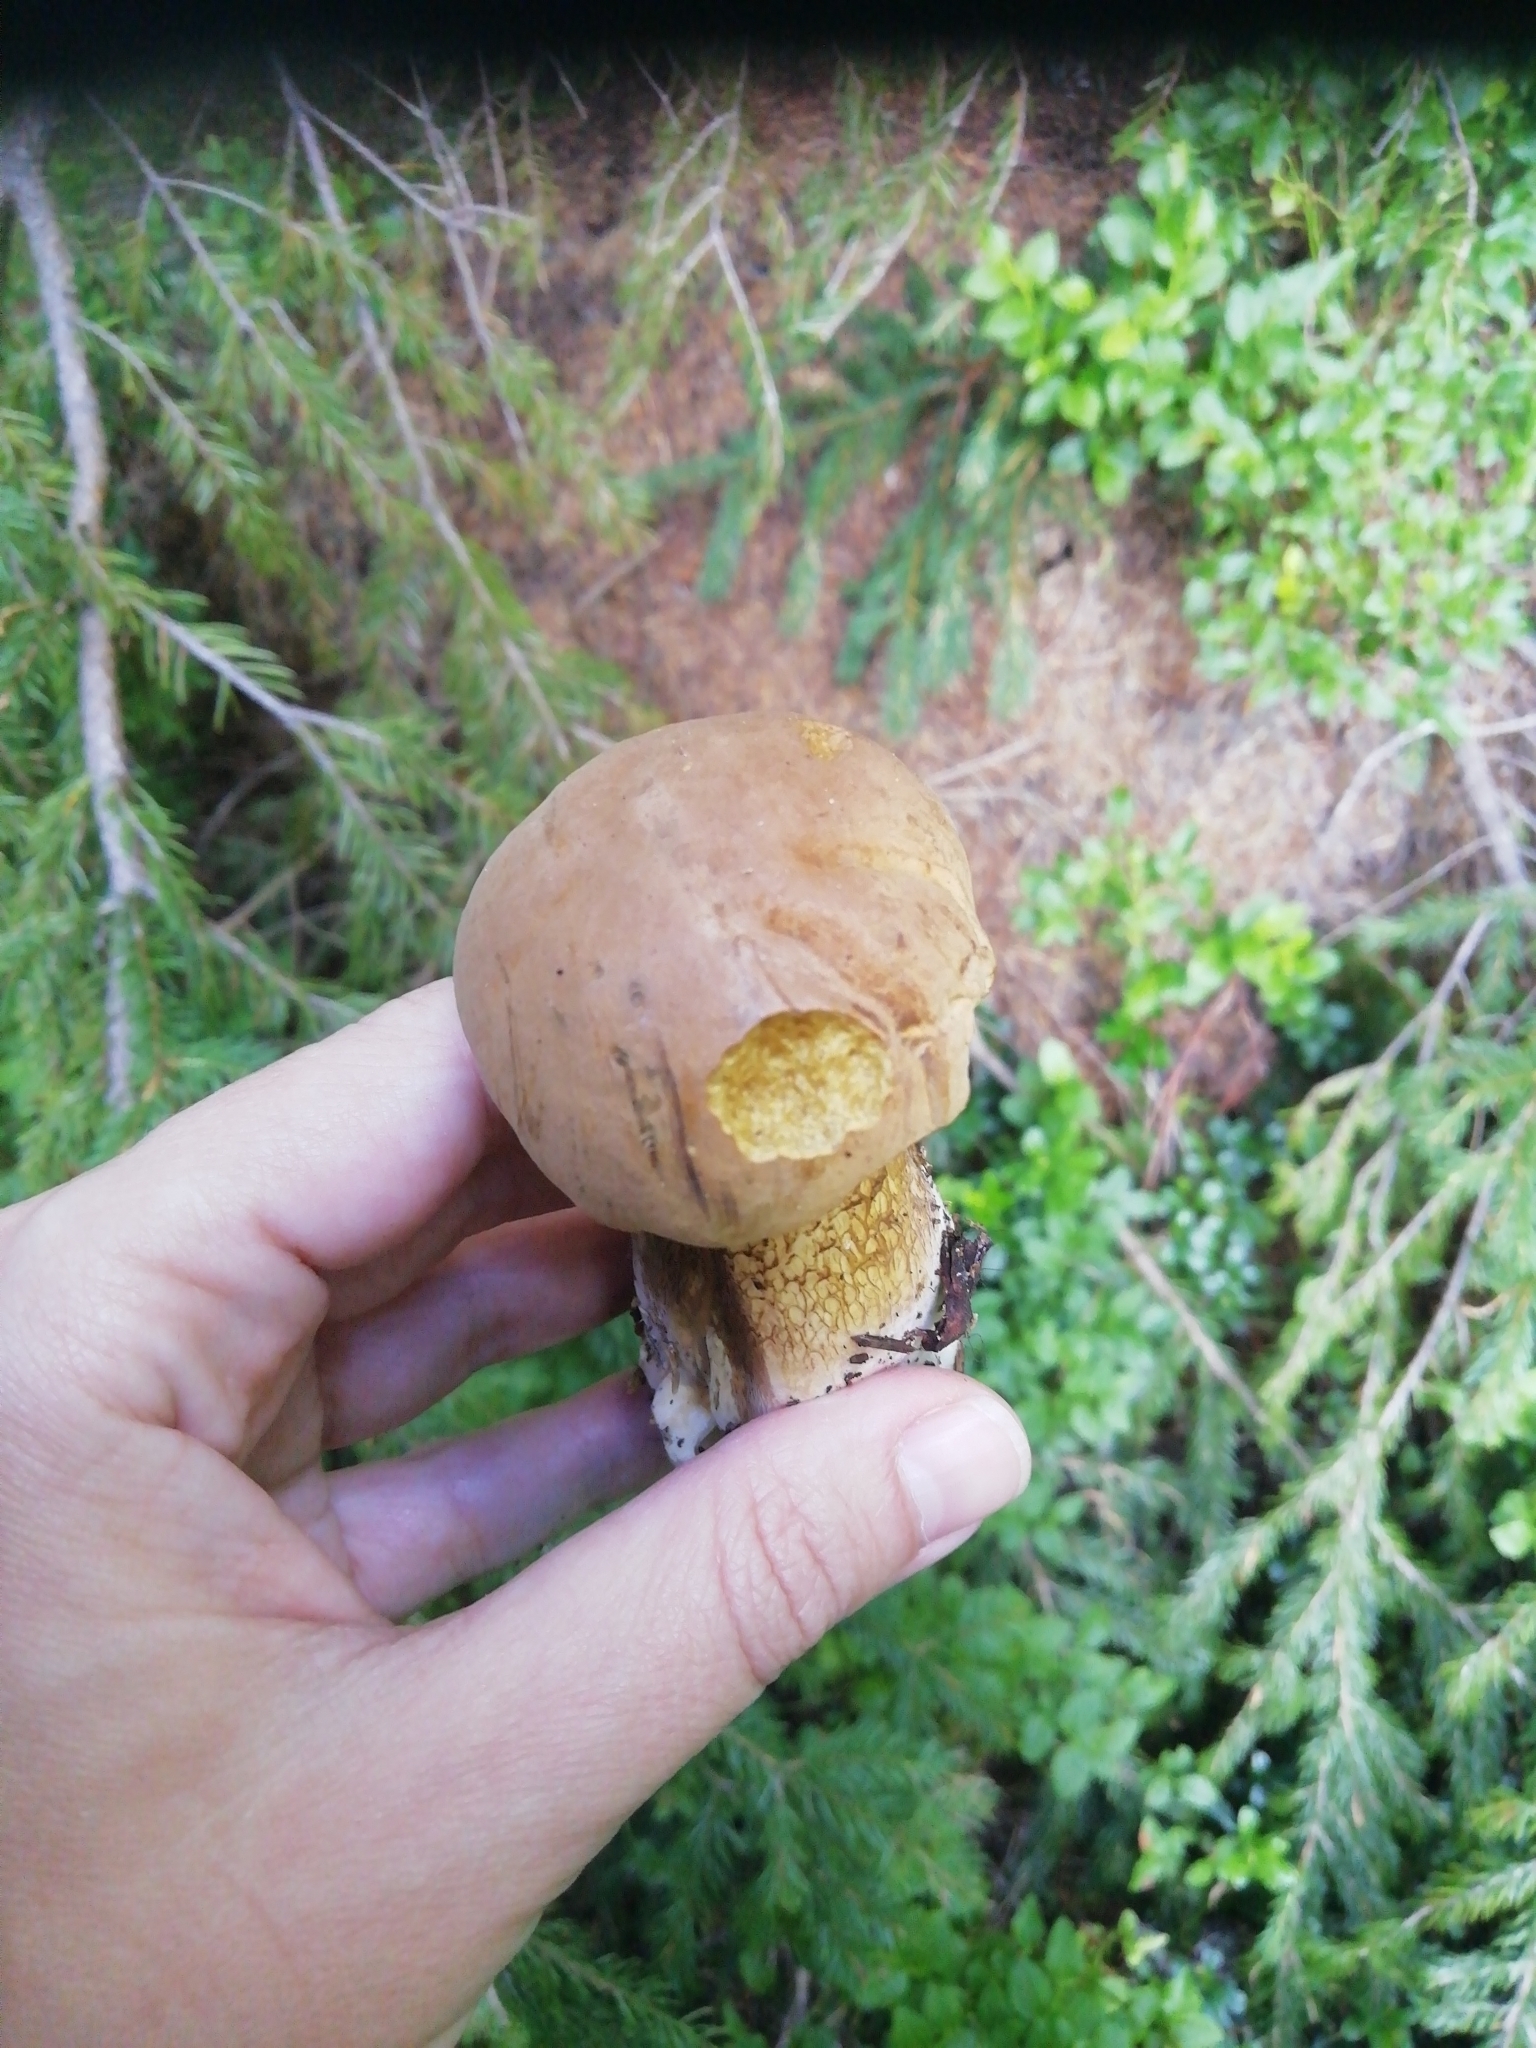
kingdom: Fungi
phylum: Basidiomycota
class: Agaricomycetes
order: Boletales
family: Boletaceae
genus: Tylopilus
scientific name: Tylopilus felleus
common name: Bitter bolete
